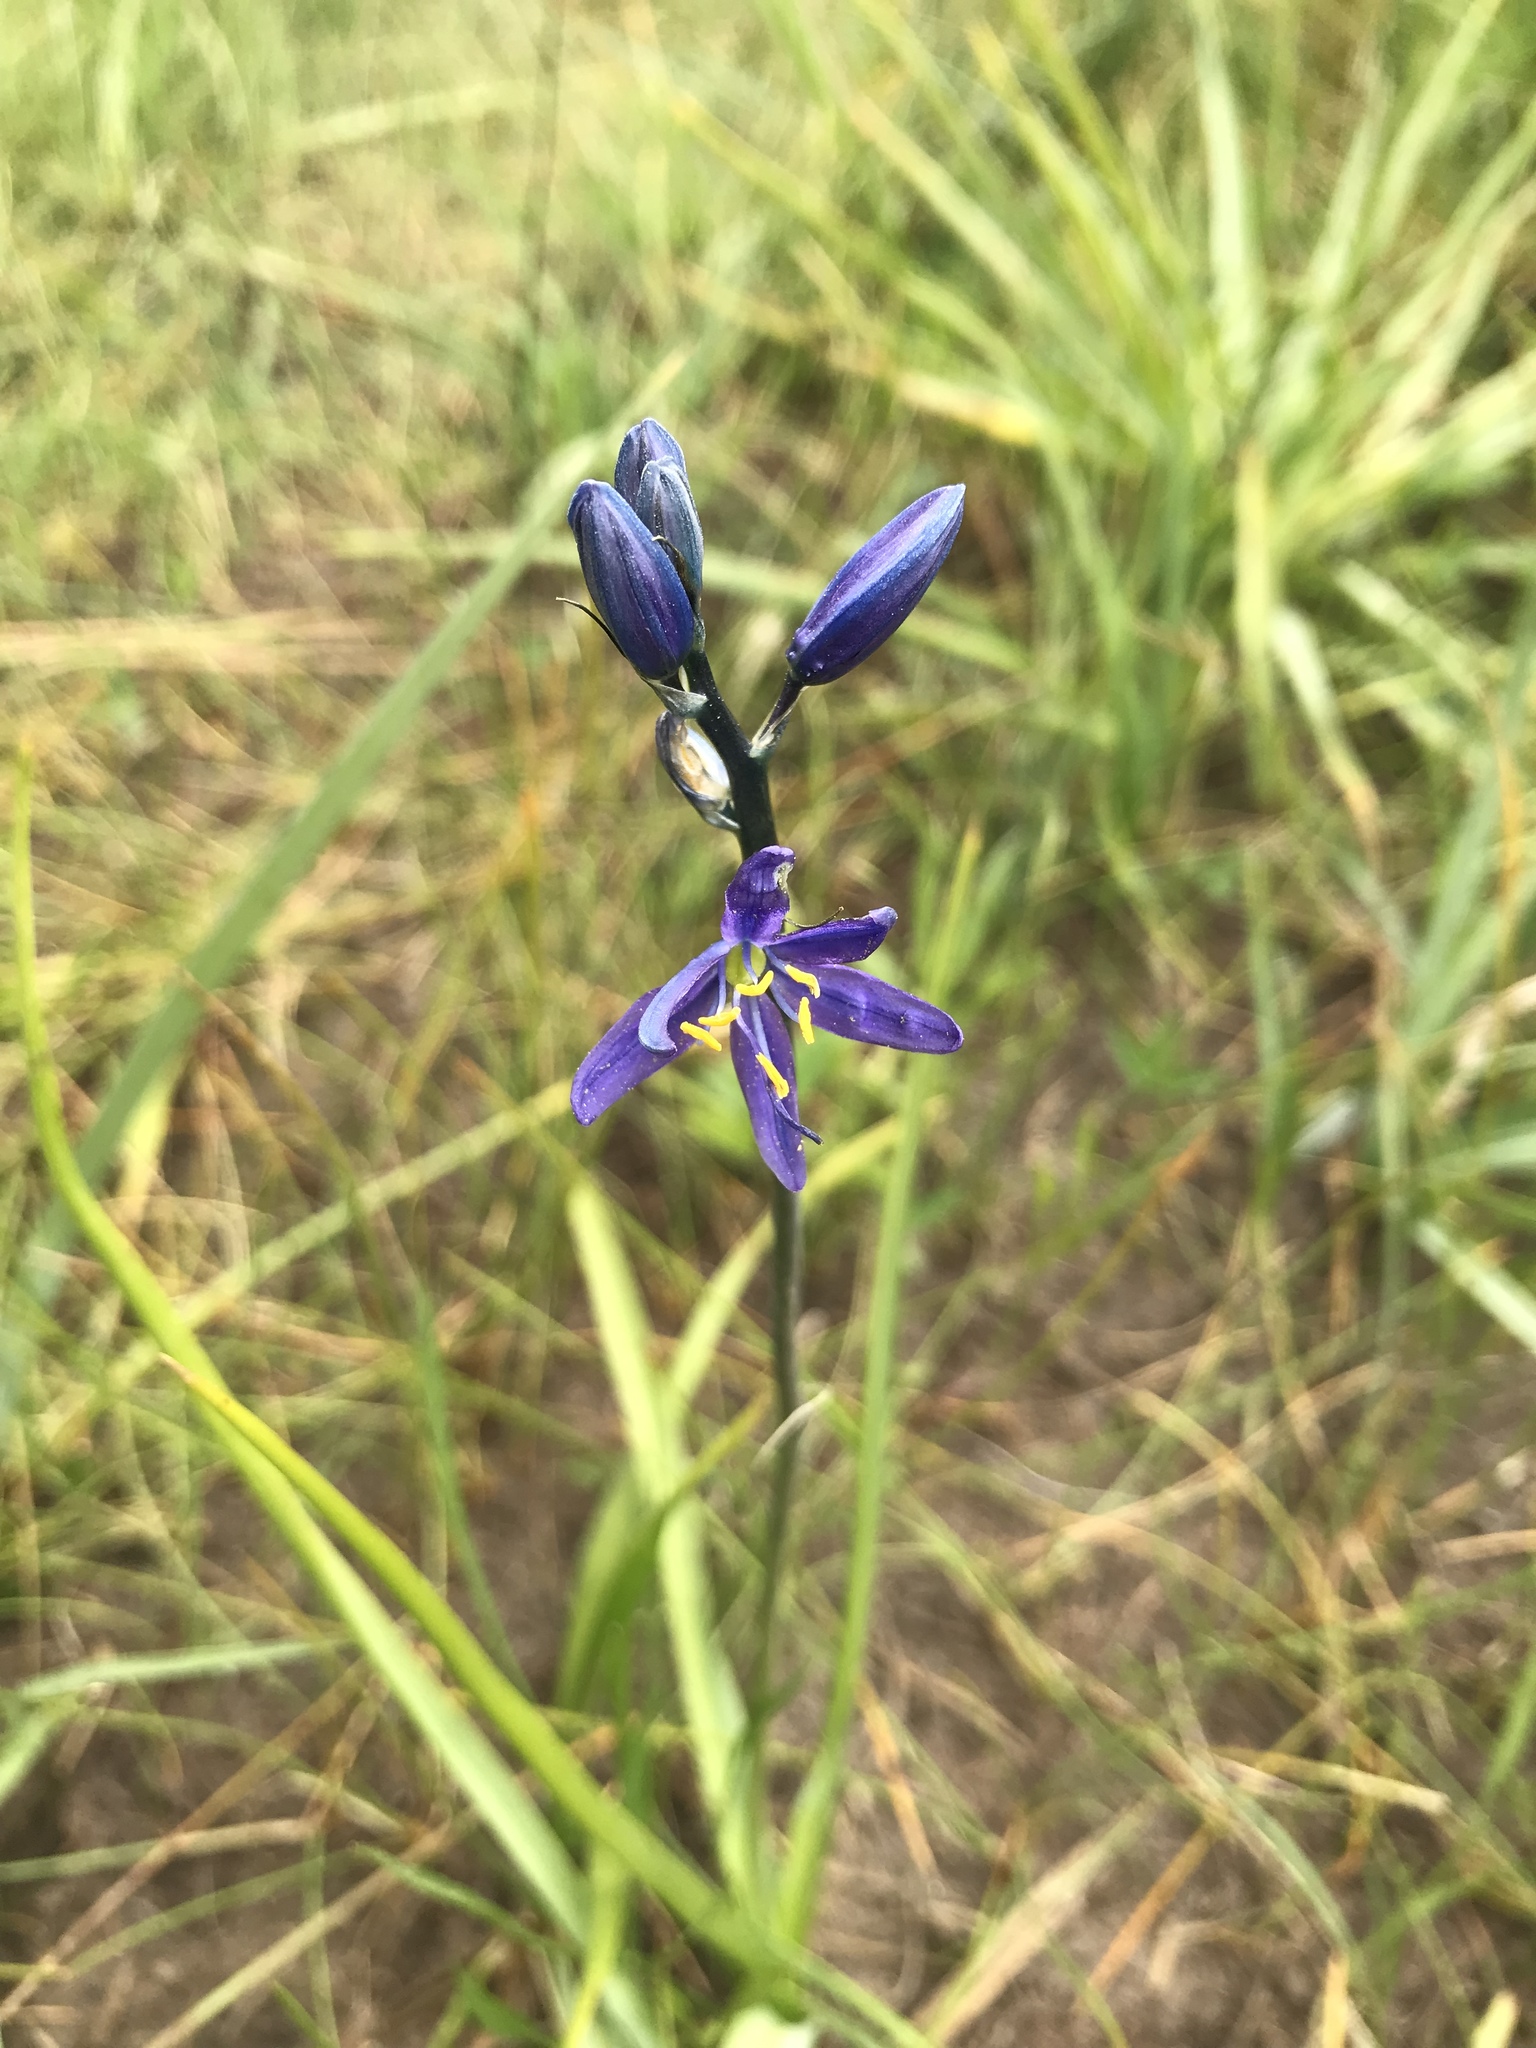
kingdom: Plantae
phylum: Tracheophyta
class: Liliopsida
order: Asparagales
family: Asparagaceae
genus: Camassia
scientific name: Camassia quamash
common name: Common camas
